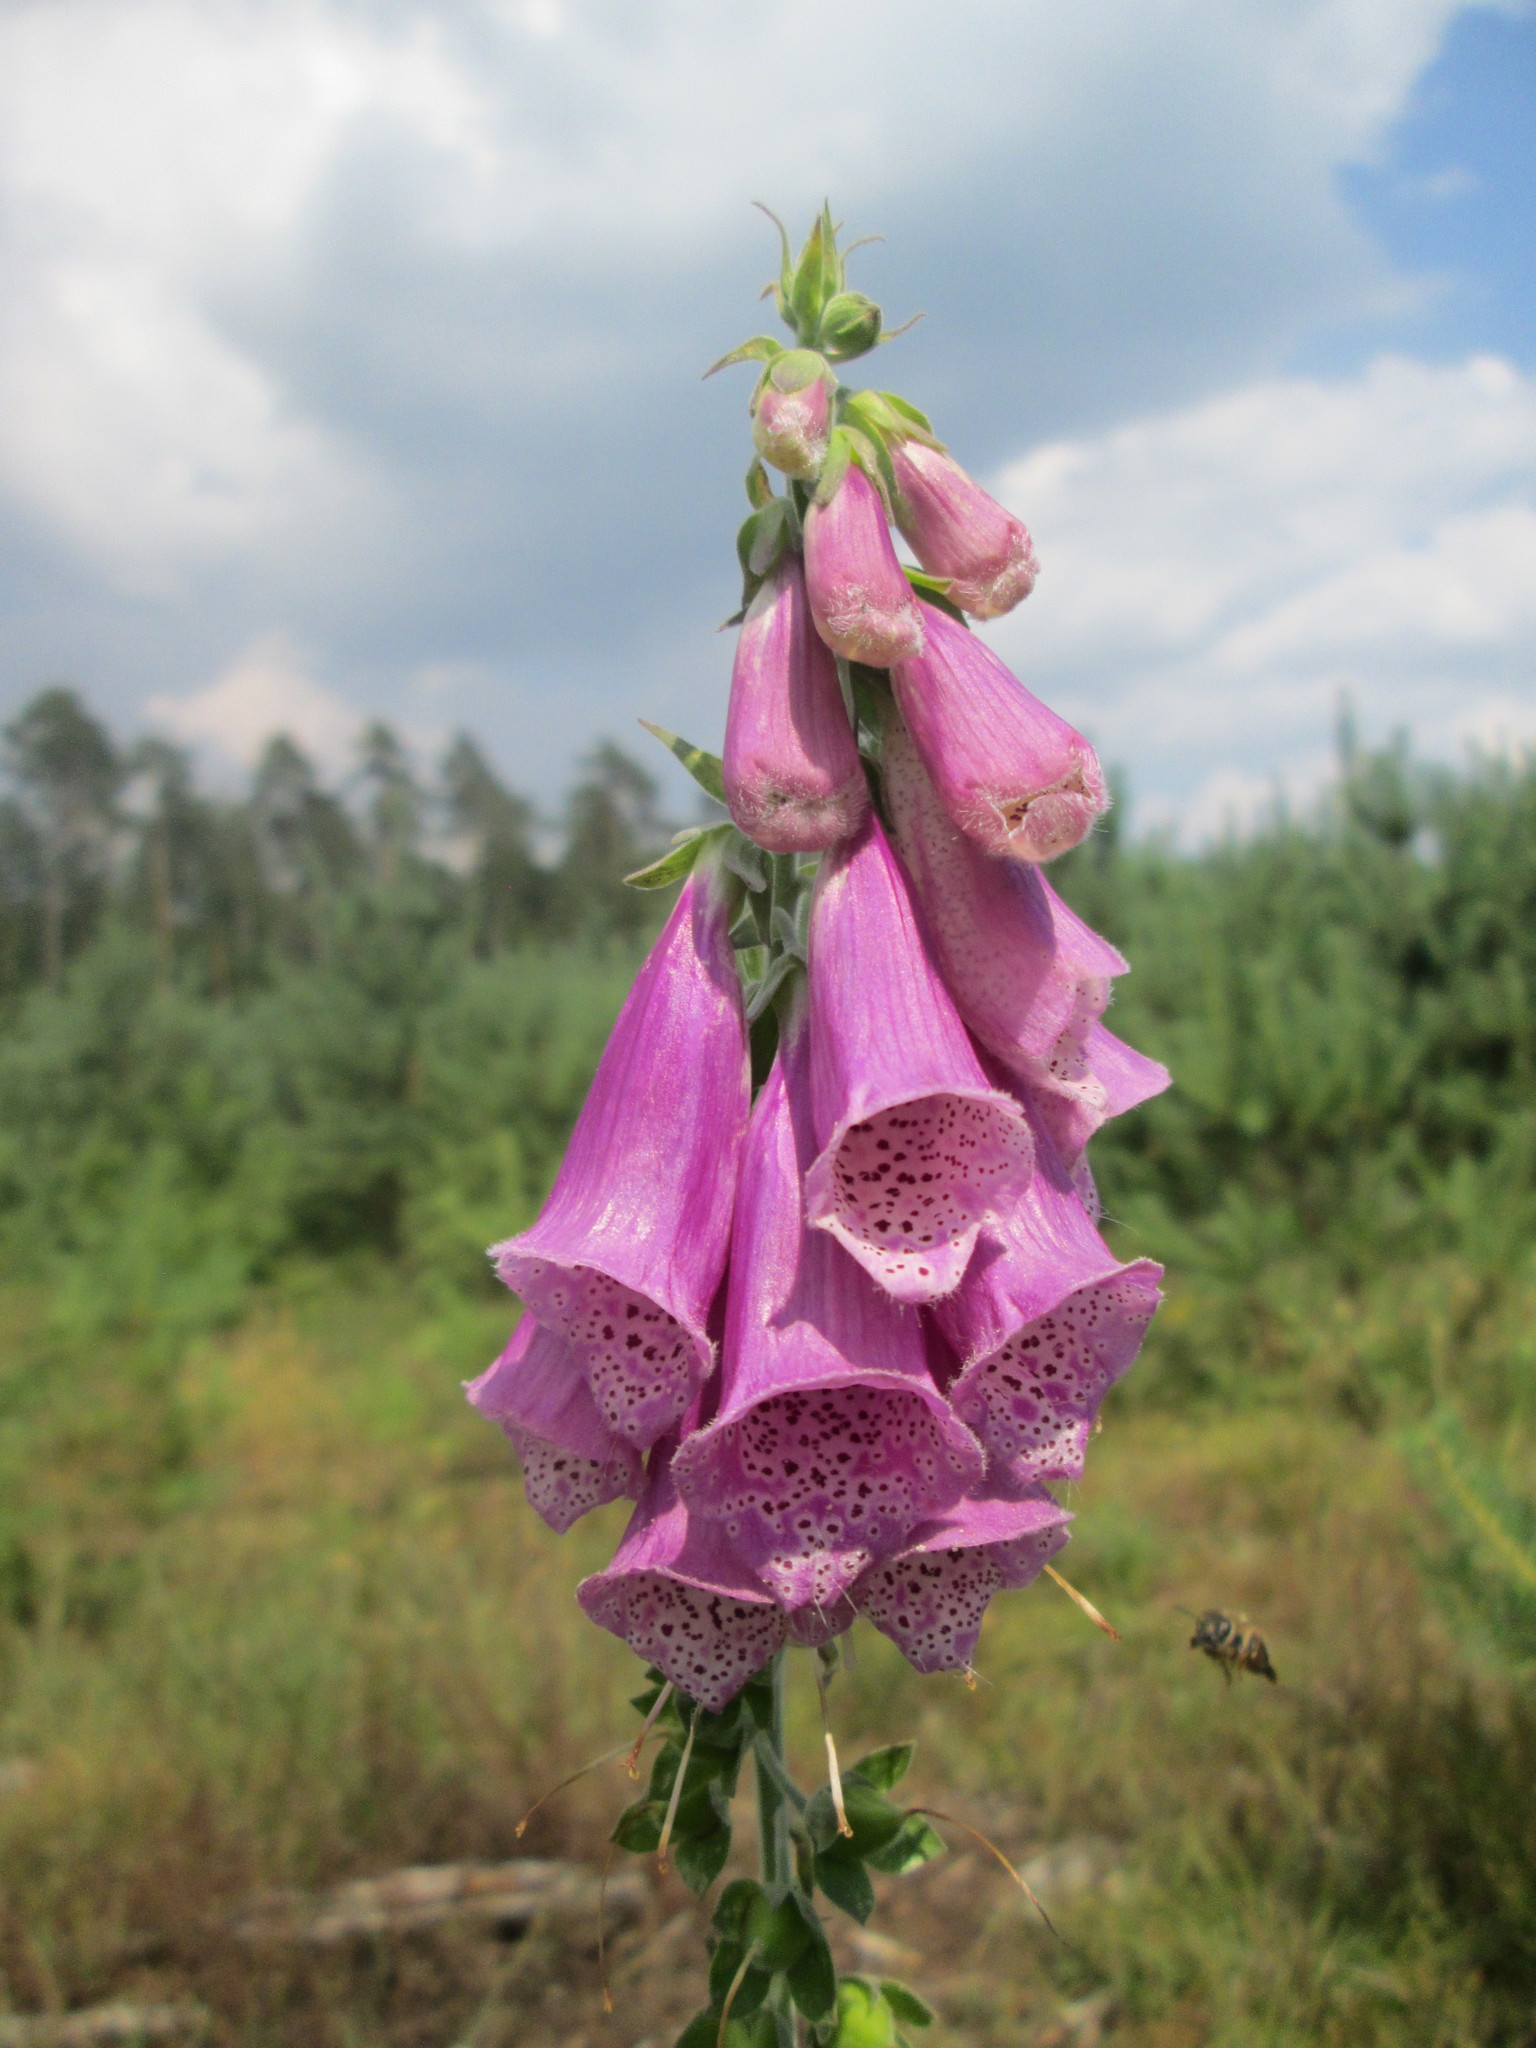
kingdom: Plantae
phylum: Tracheophyta
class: Magnoliopsida
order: Lamiales
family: Plantaginaceae
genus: Digitalis
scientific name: Digitalis purpurea
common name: Foxglove
